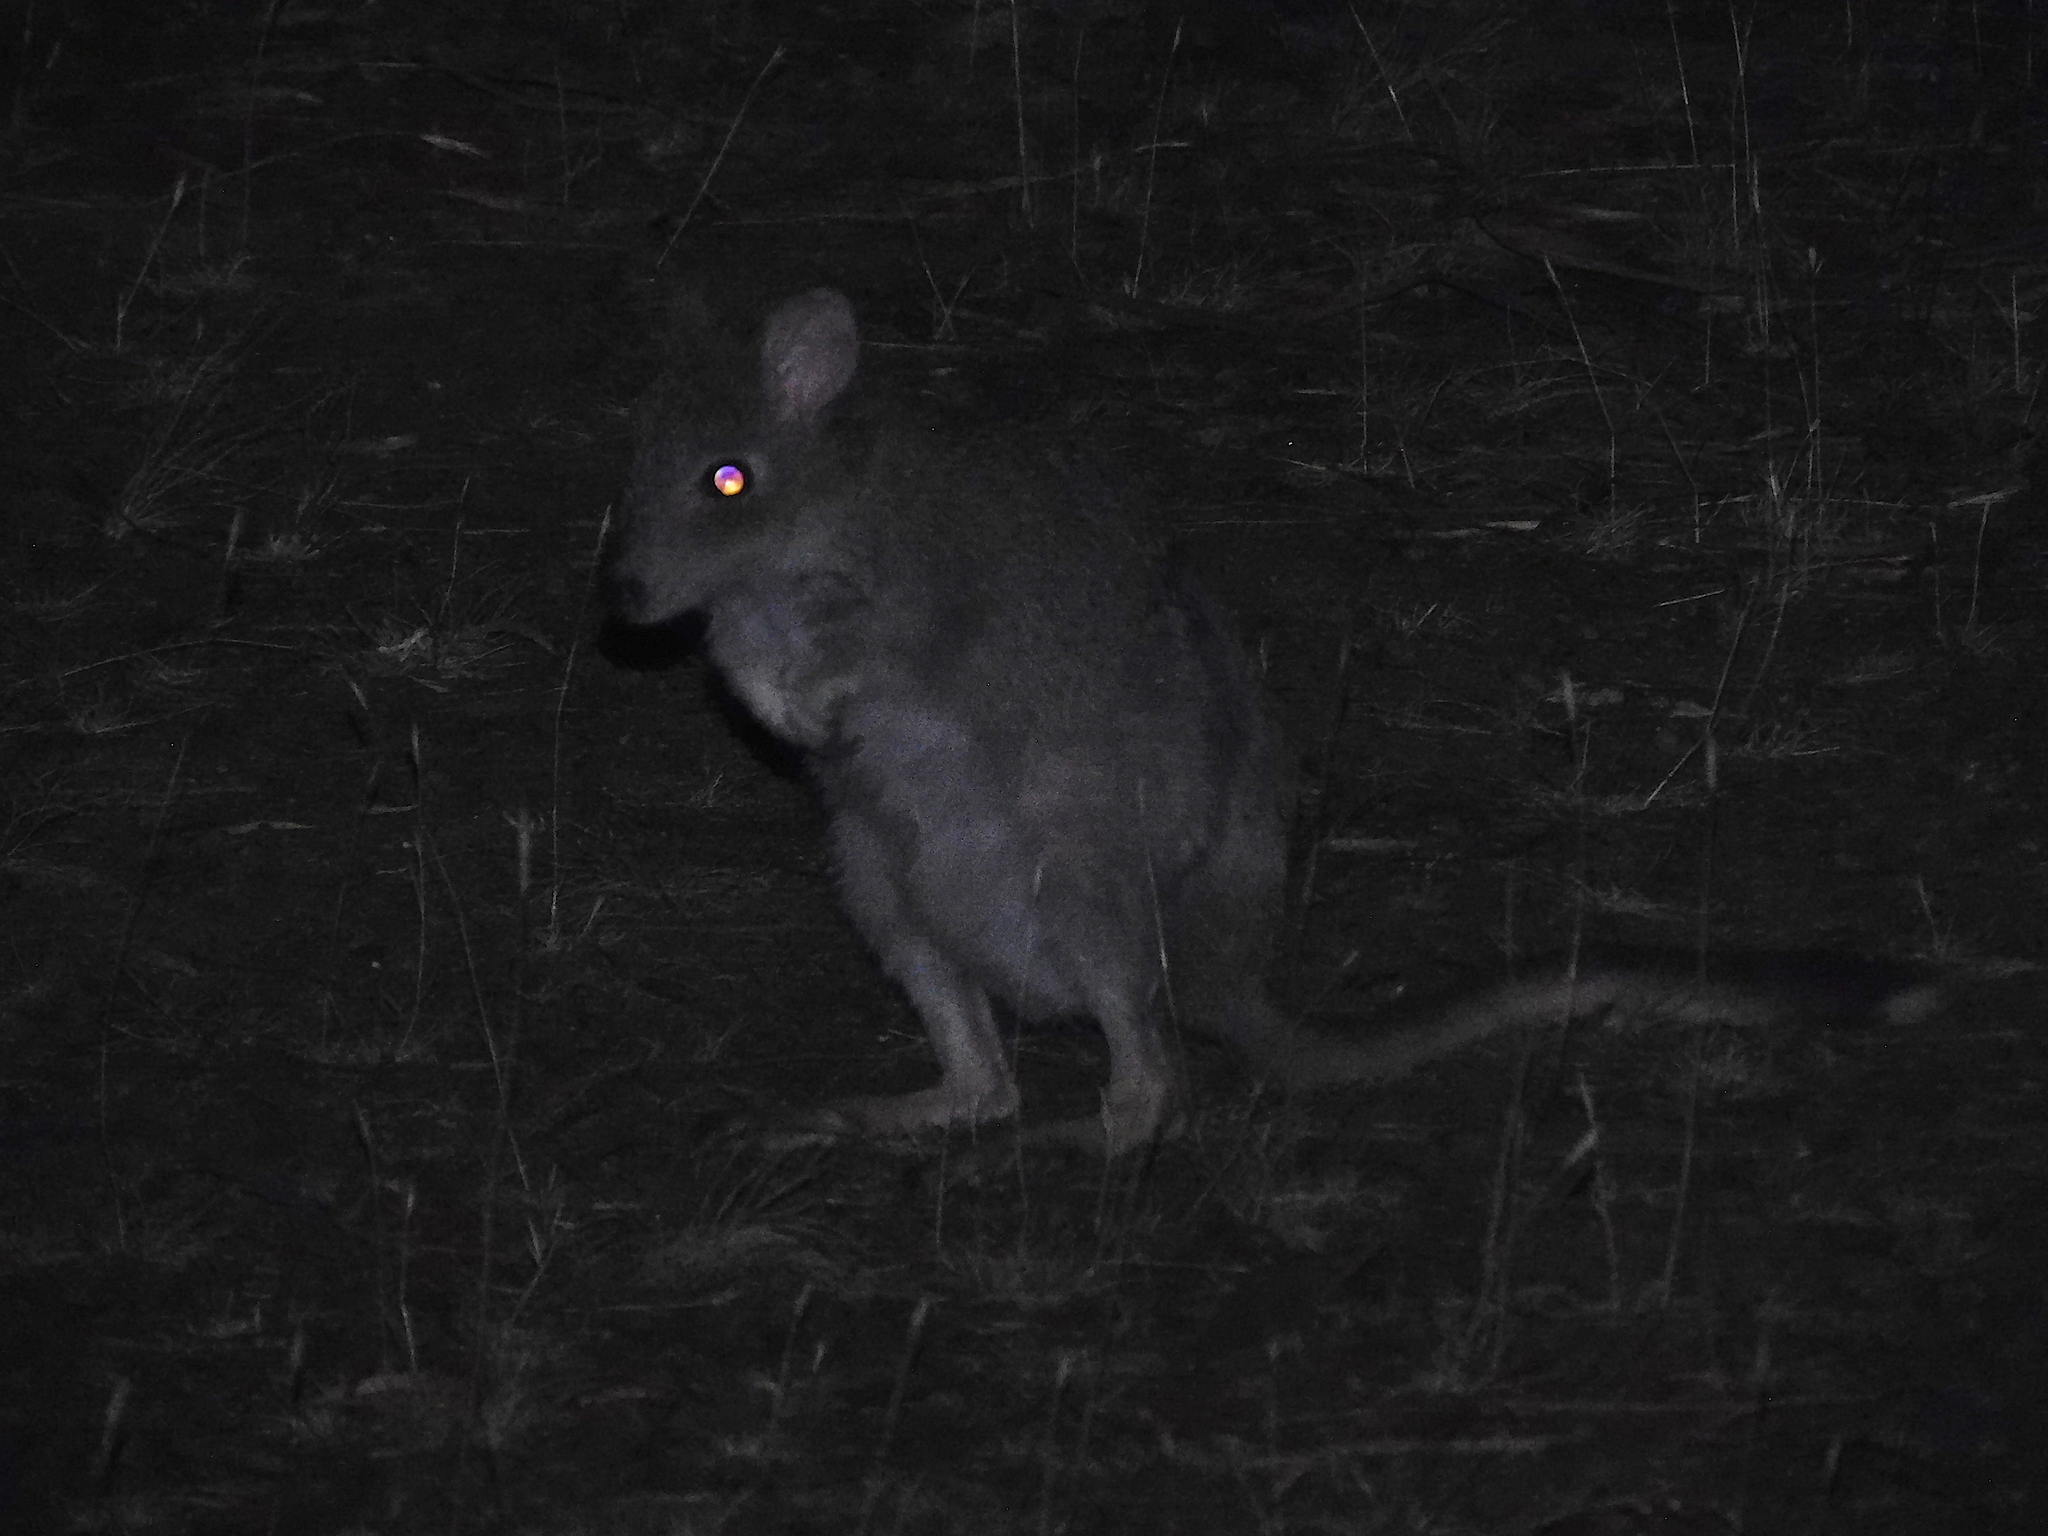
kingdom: Animalia
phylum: Chordata
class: Mammalia
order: Diprotodontia
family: Potoroidae
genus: Bettongia
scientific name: Bettongia gaimardi
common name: Eastern bettong
